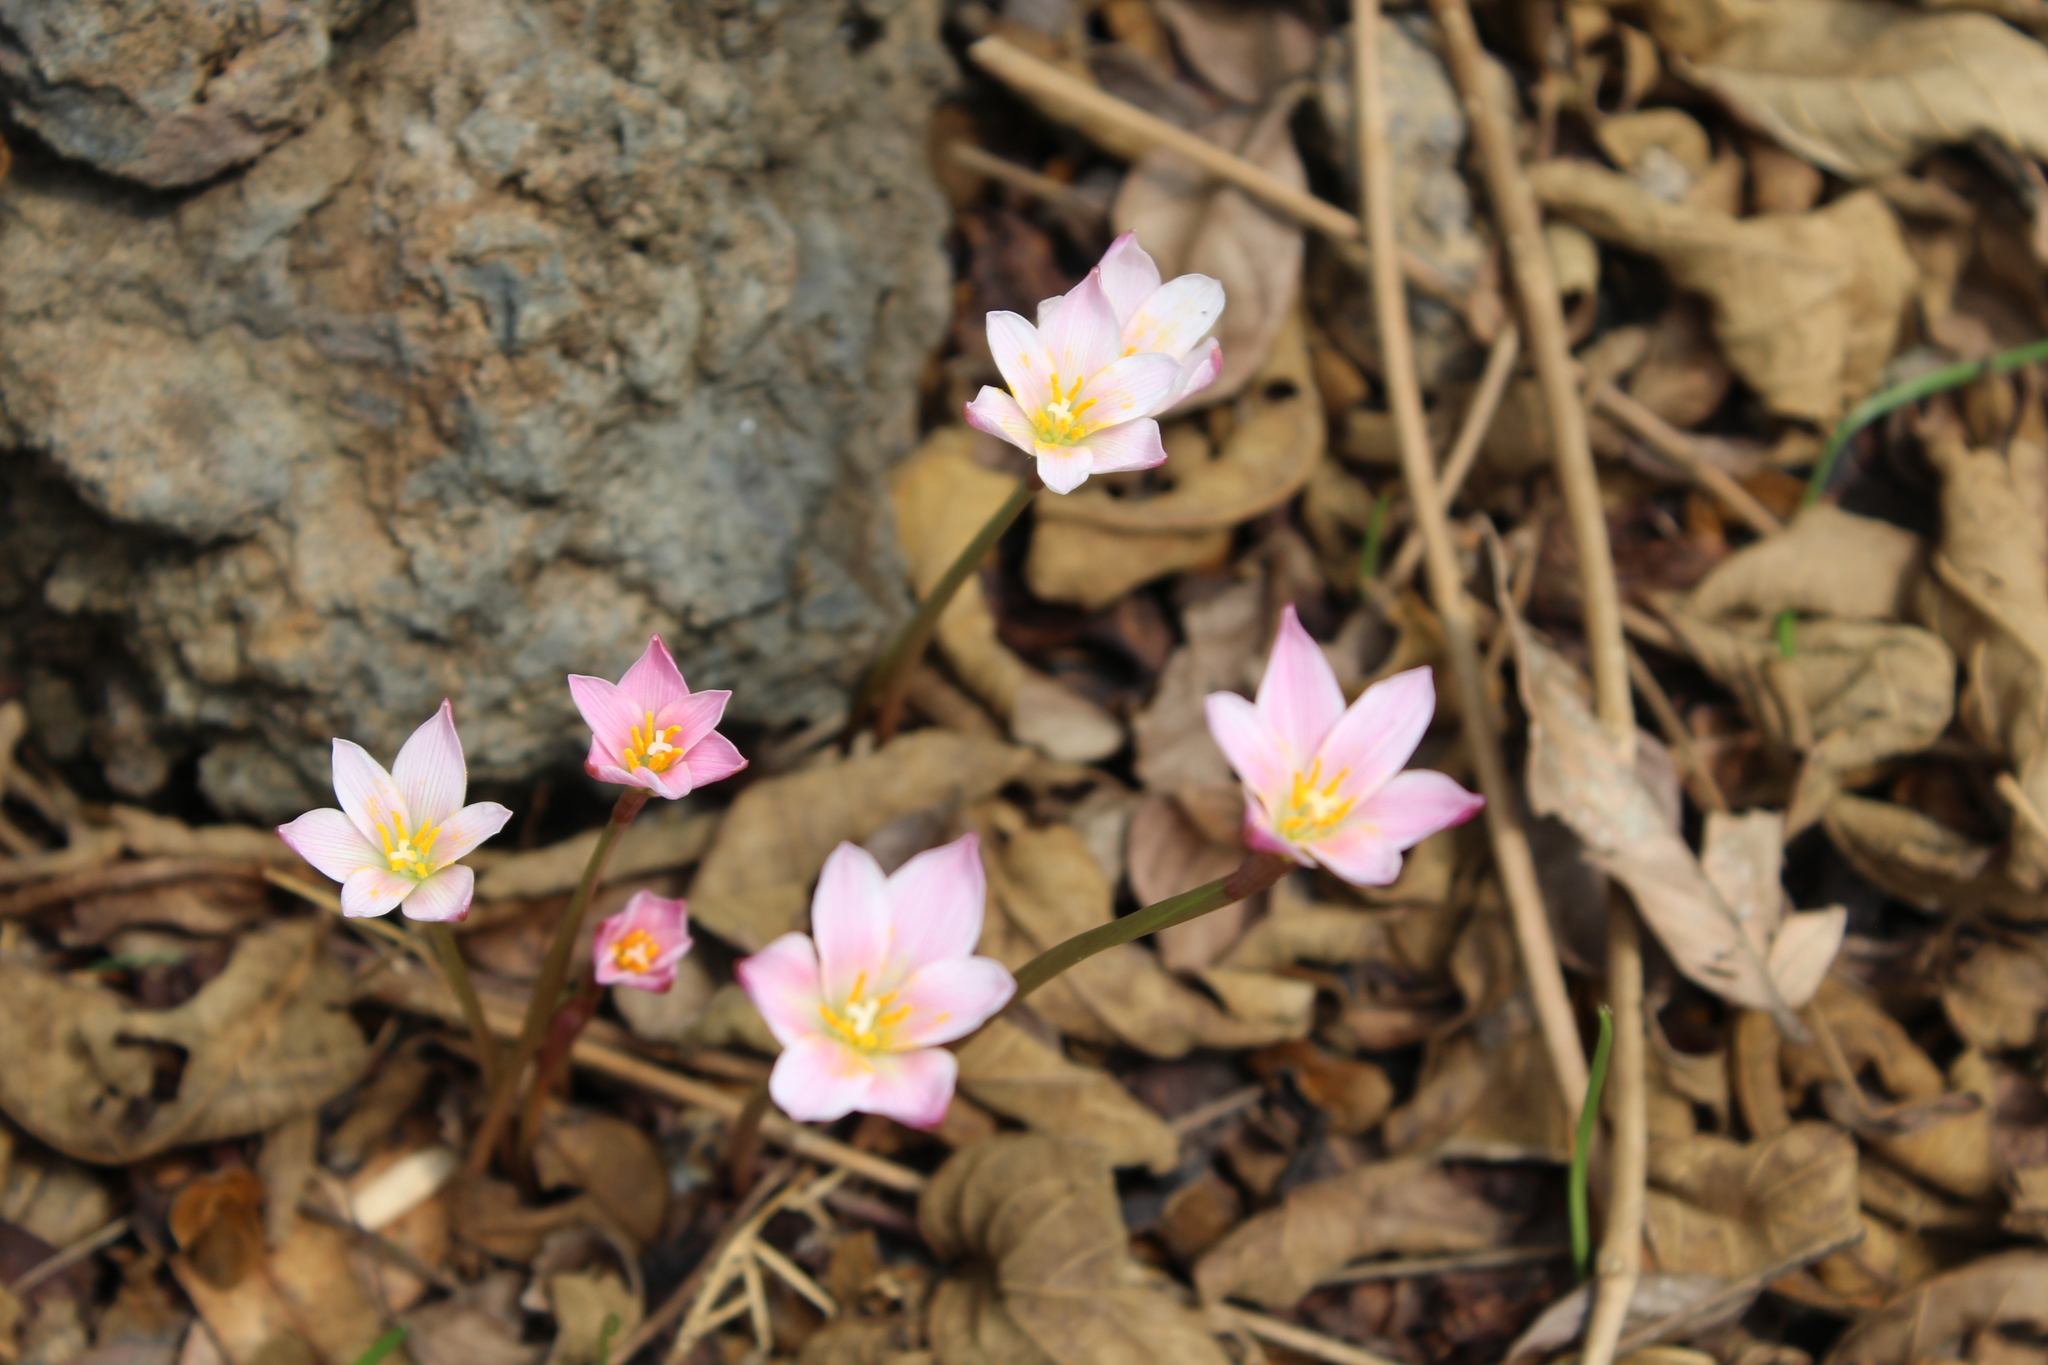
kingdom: Plantae
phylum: Tracheophyta
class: Liliopsida
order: Asparagales
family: Amaryllidaceae
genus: Zephyranthes
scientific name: Zephyranthes fosteri
